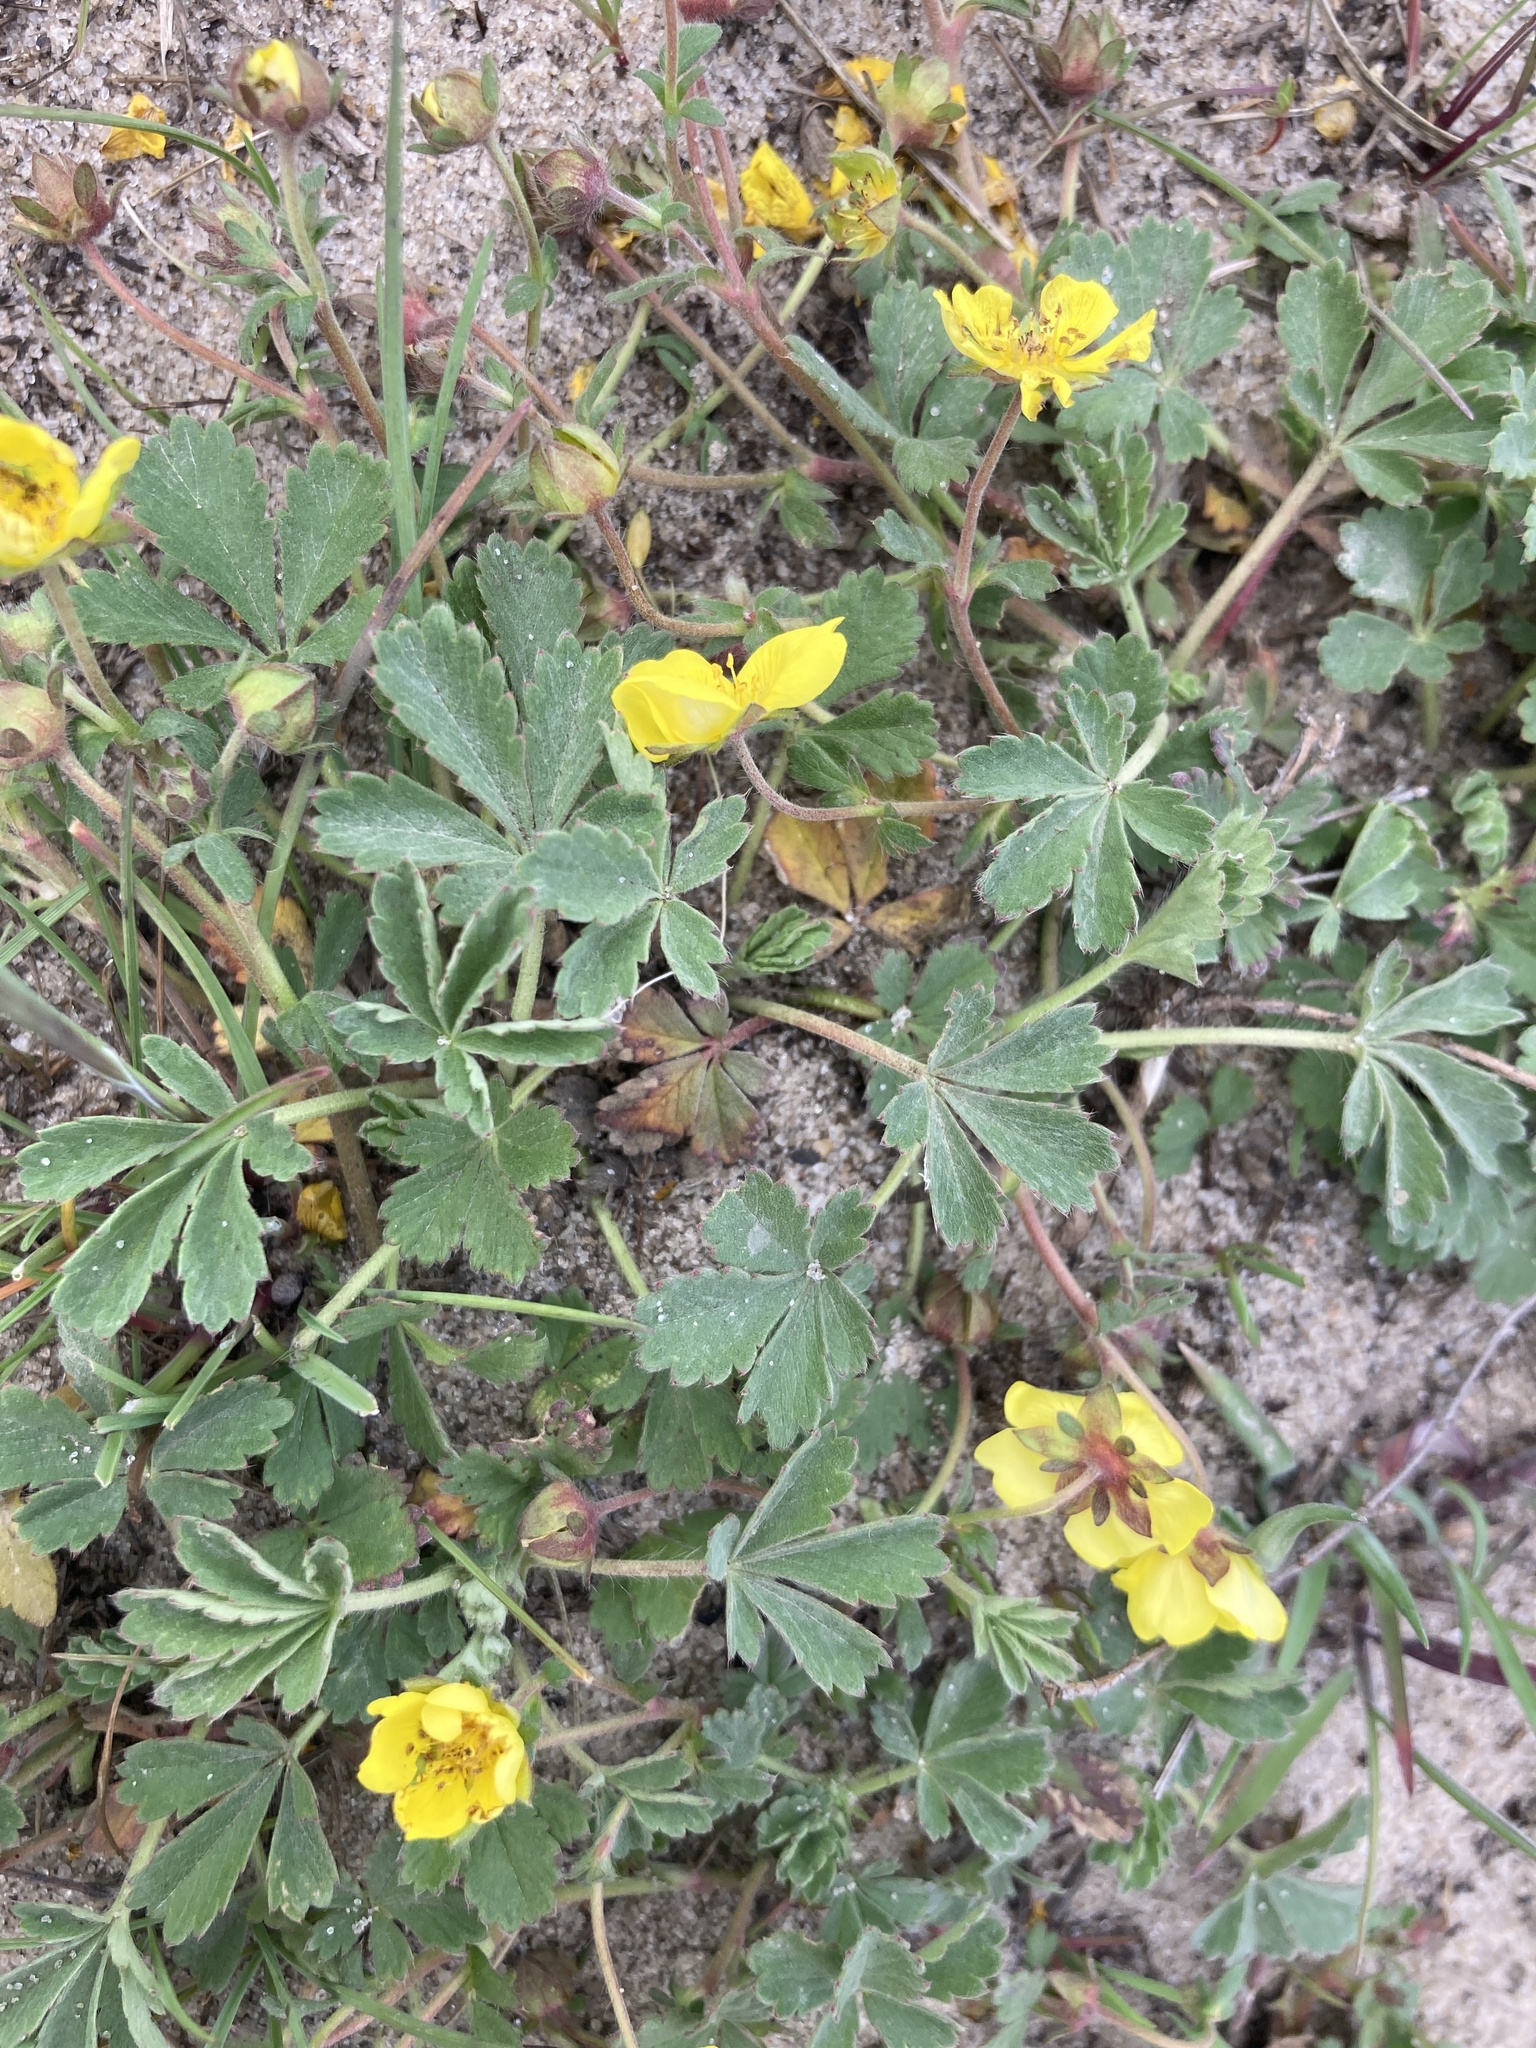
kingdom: Plantae
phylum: Tracheophyta
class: Magnoliopsida
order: Rosales
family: Rosaceae
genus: Potentilla
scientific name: Potentilla incana
